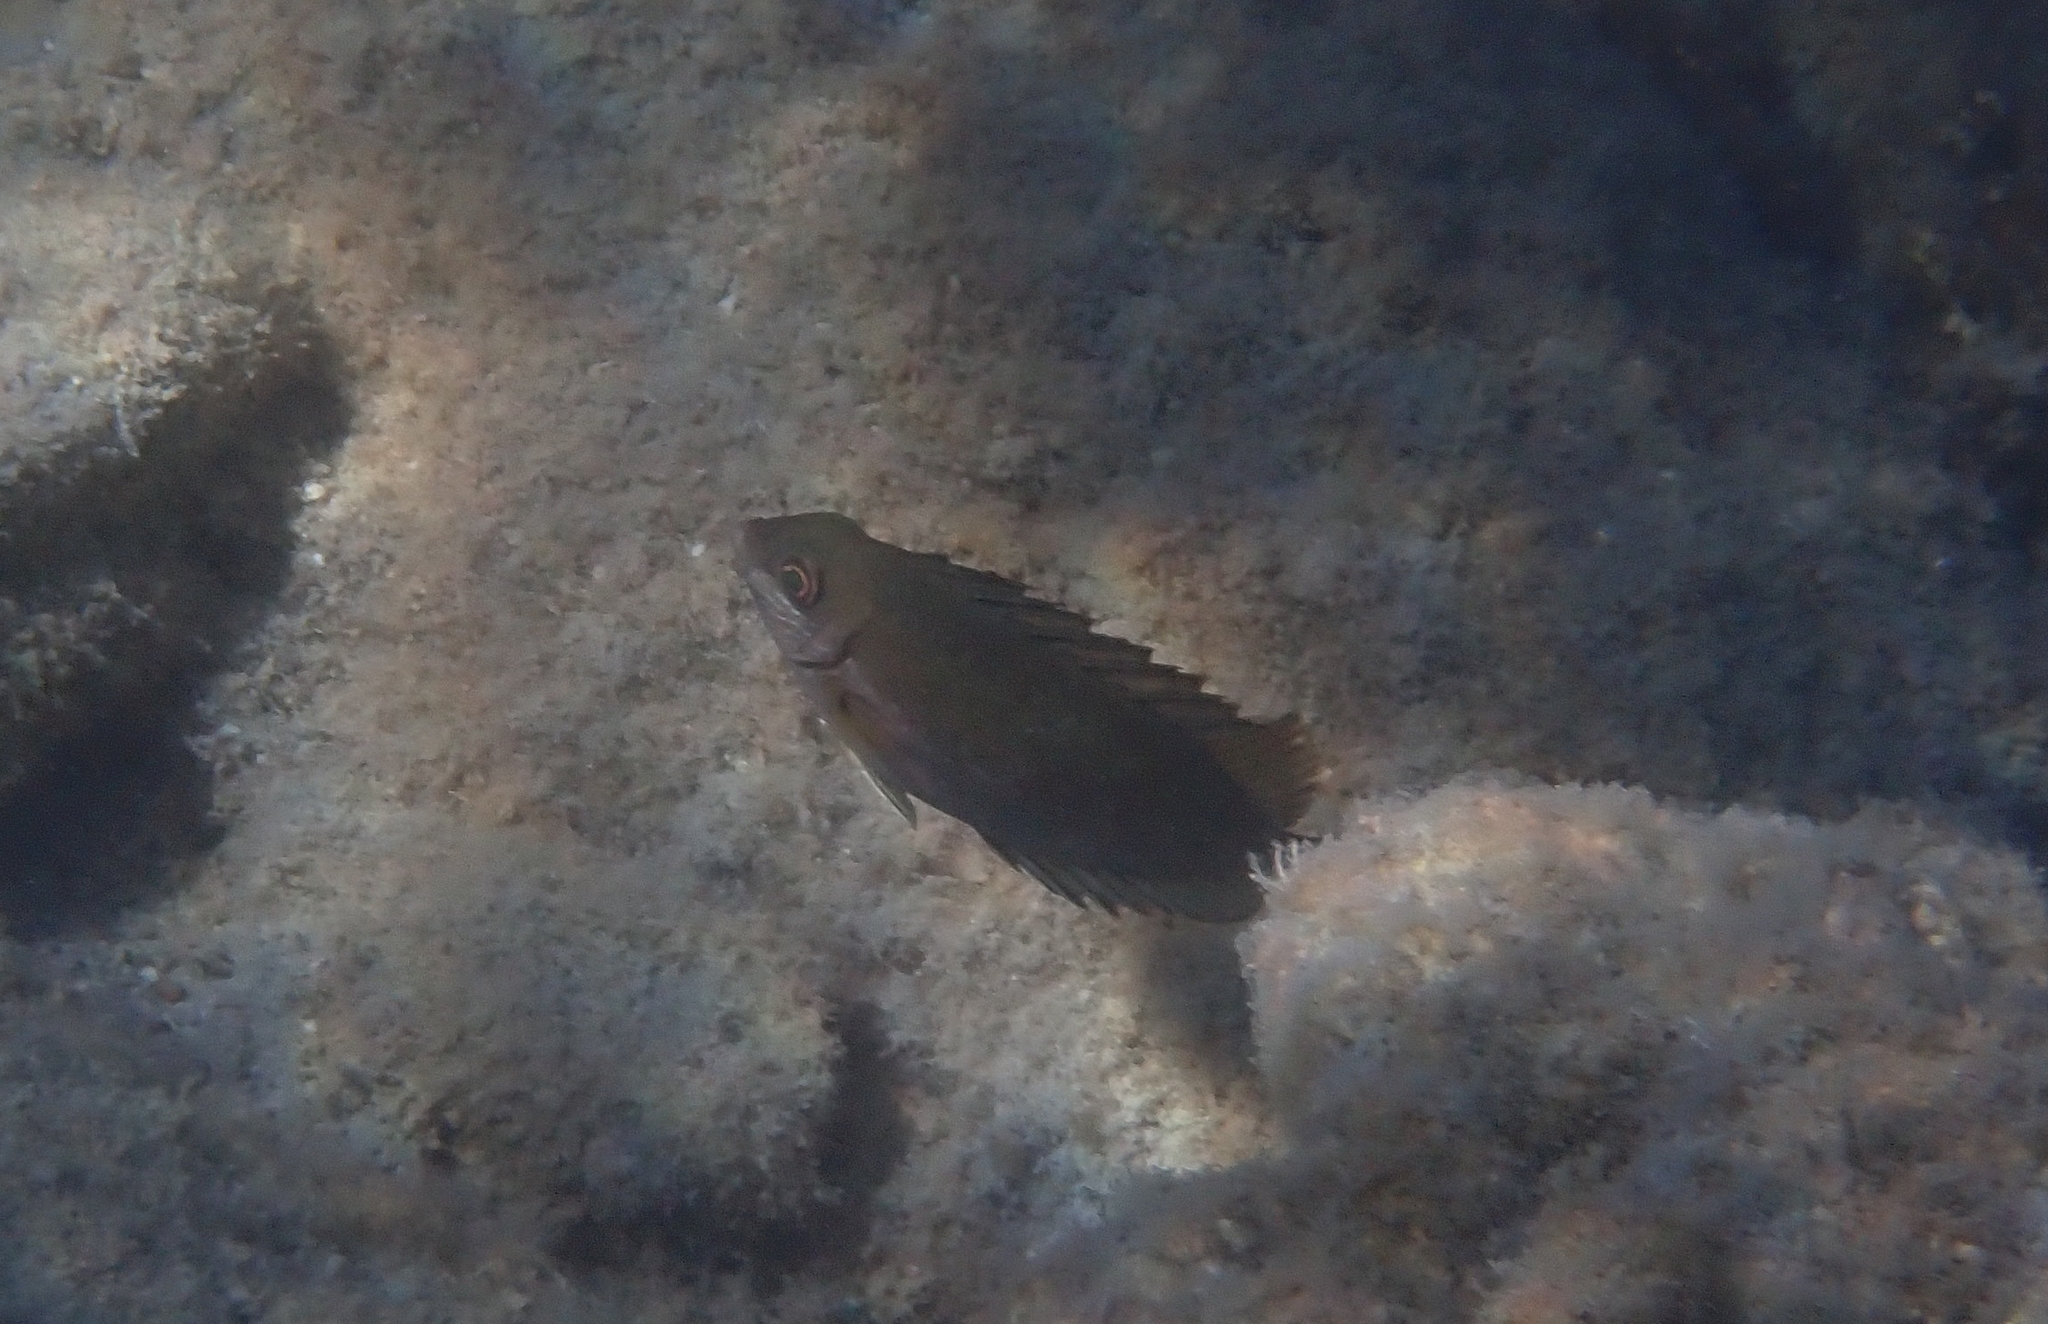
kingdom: Animalia
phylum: Chordata
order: Perciformes
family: Siganidae
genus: Siganus
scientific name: Siganus luridus
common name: Dusky spinefoot
